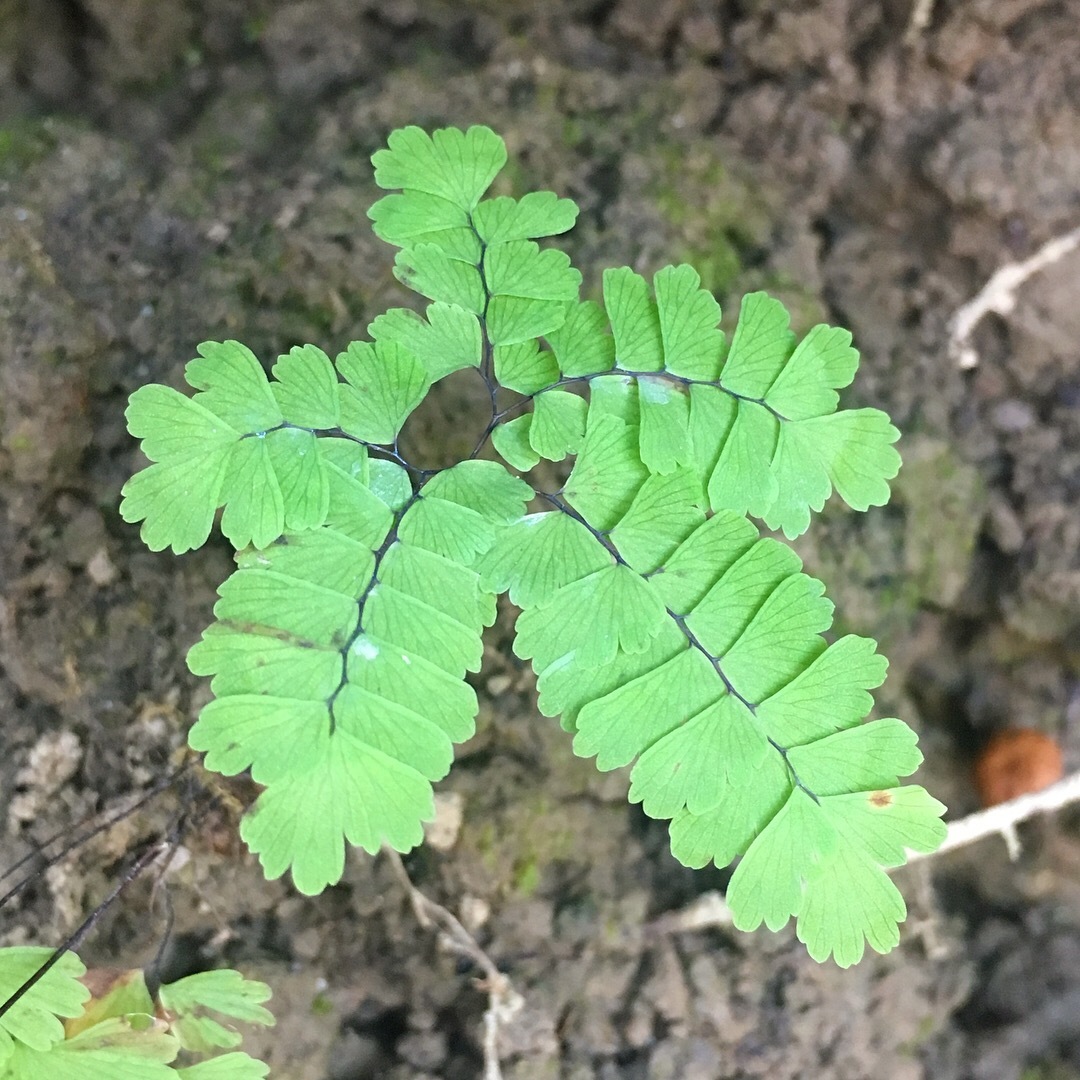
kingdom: Plantae
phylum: Tracheophyta
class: Polypodiopsida
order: Polypodiales
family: Pteridaceae
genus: Adiantum
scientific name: Adiantum pedatum
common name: Five-finger fern
